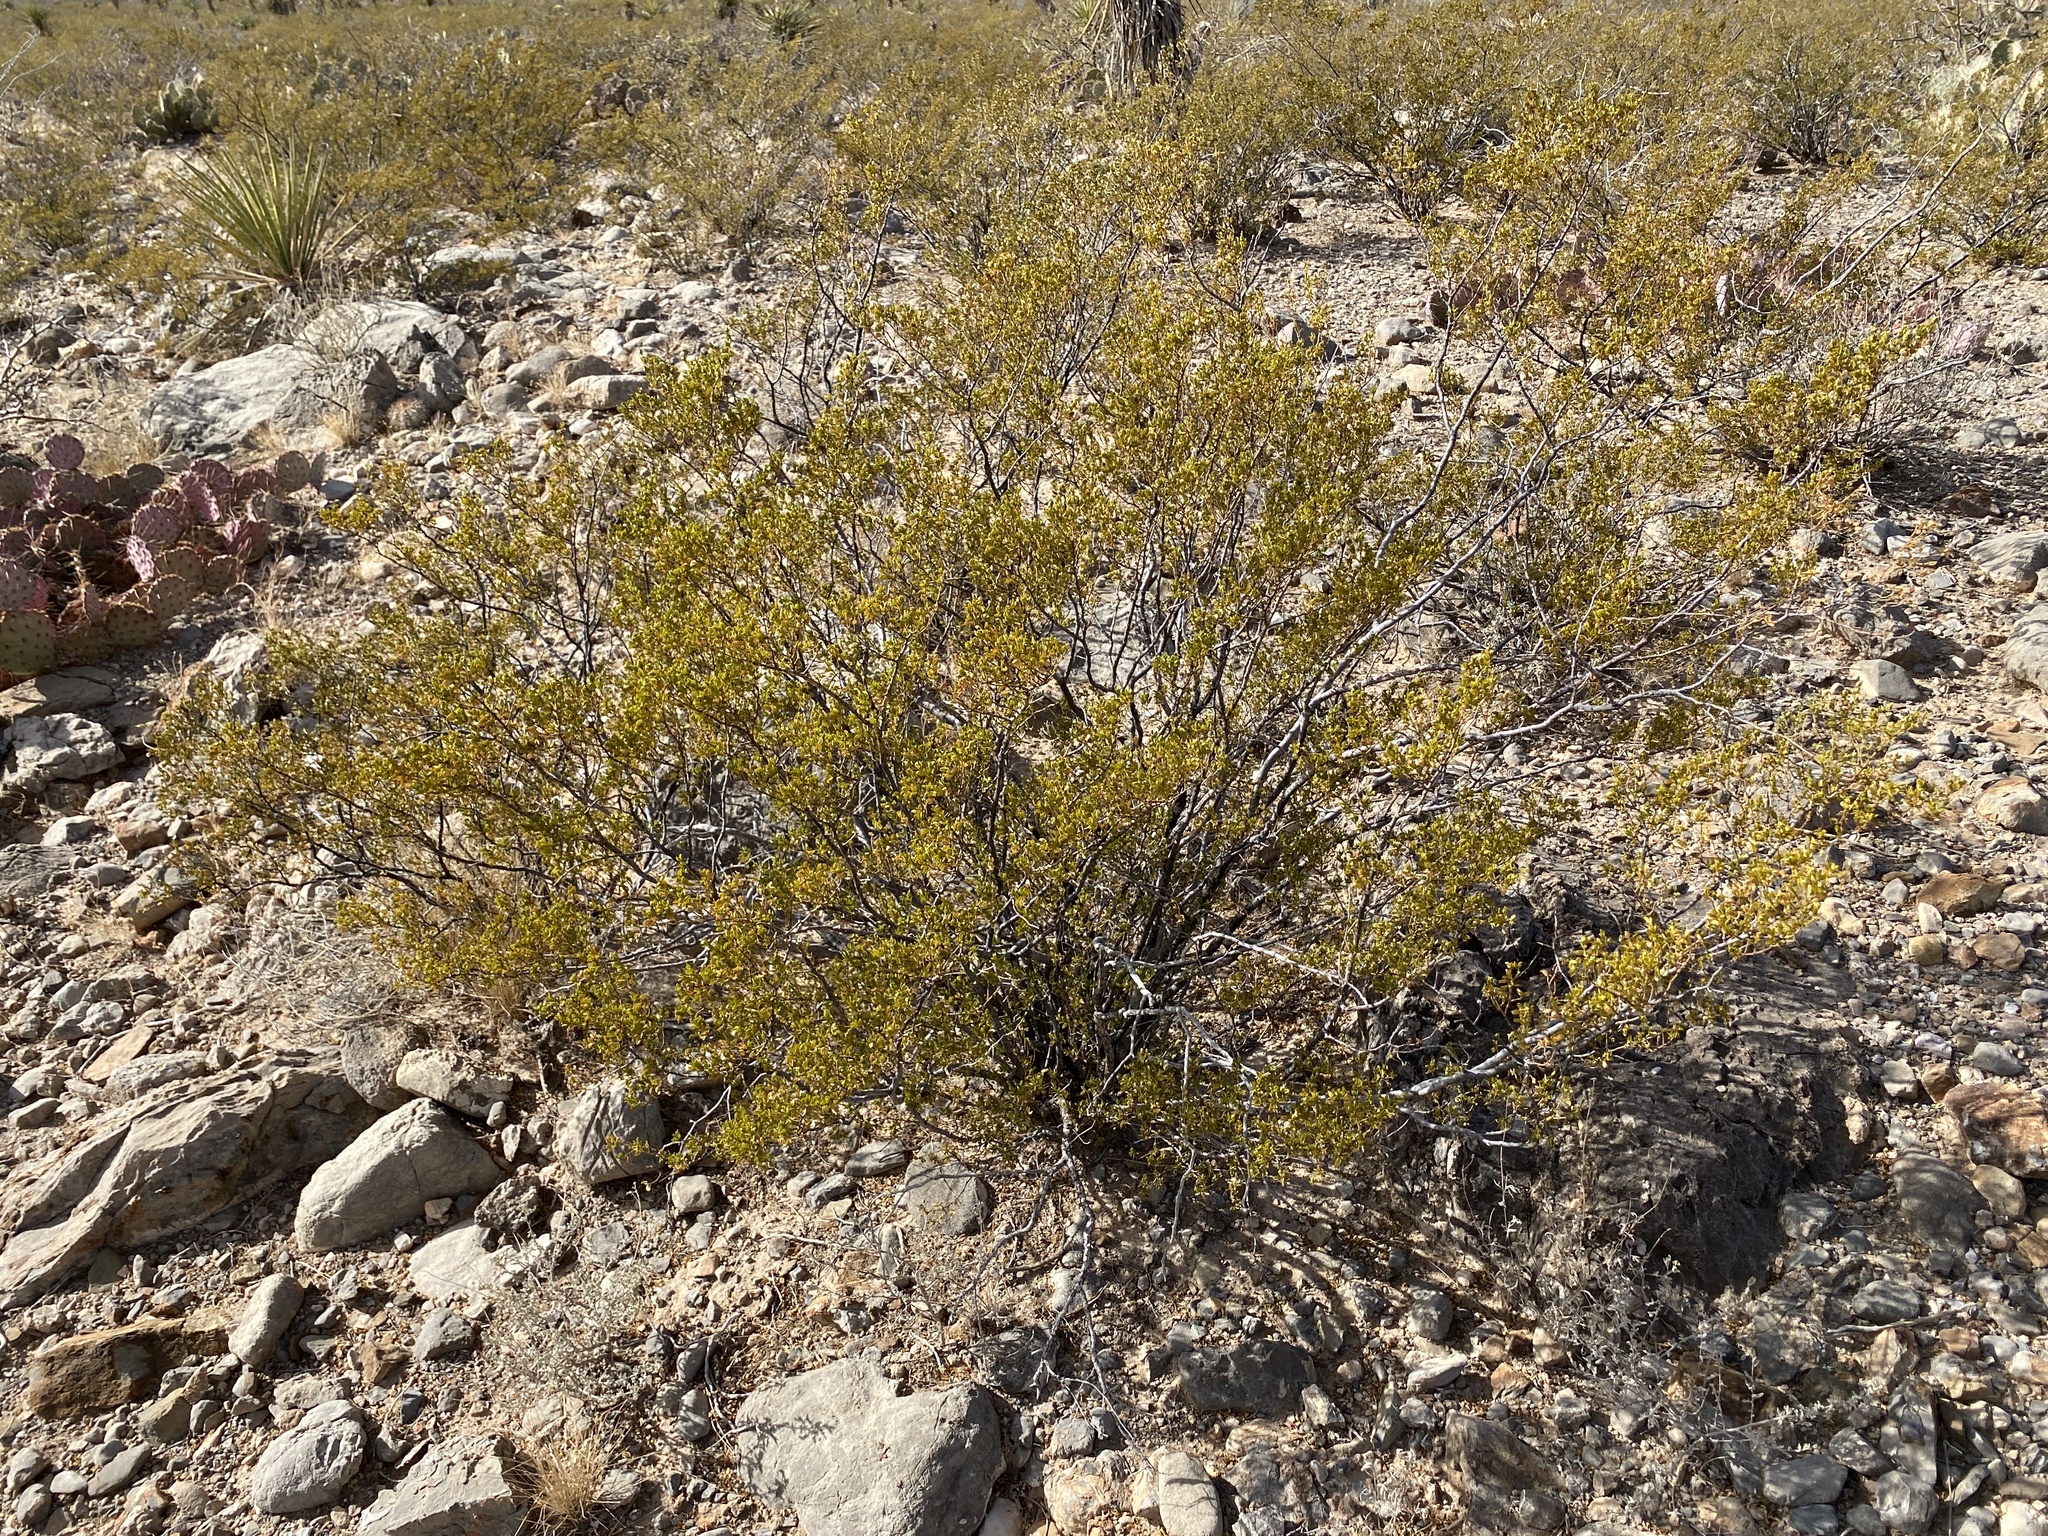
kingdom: Plantae
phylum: Tracheophyta
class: Magnoliopsida
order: Zygophyllales
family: Zygophyllaceae
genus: Larrea
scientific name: Larrea tridentata
